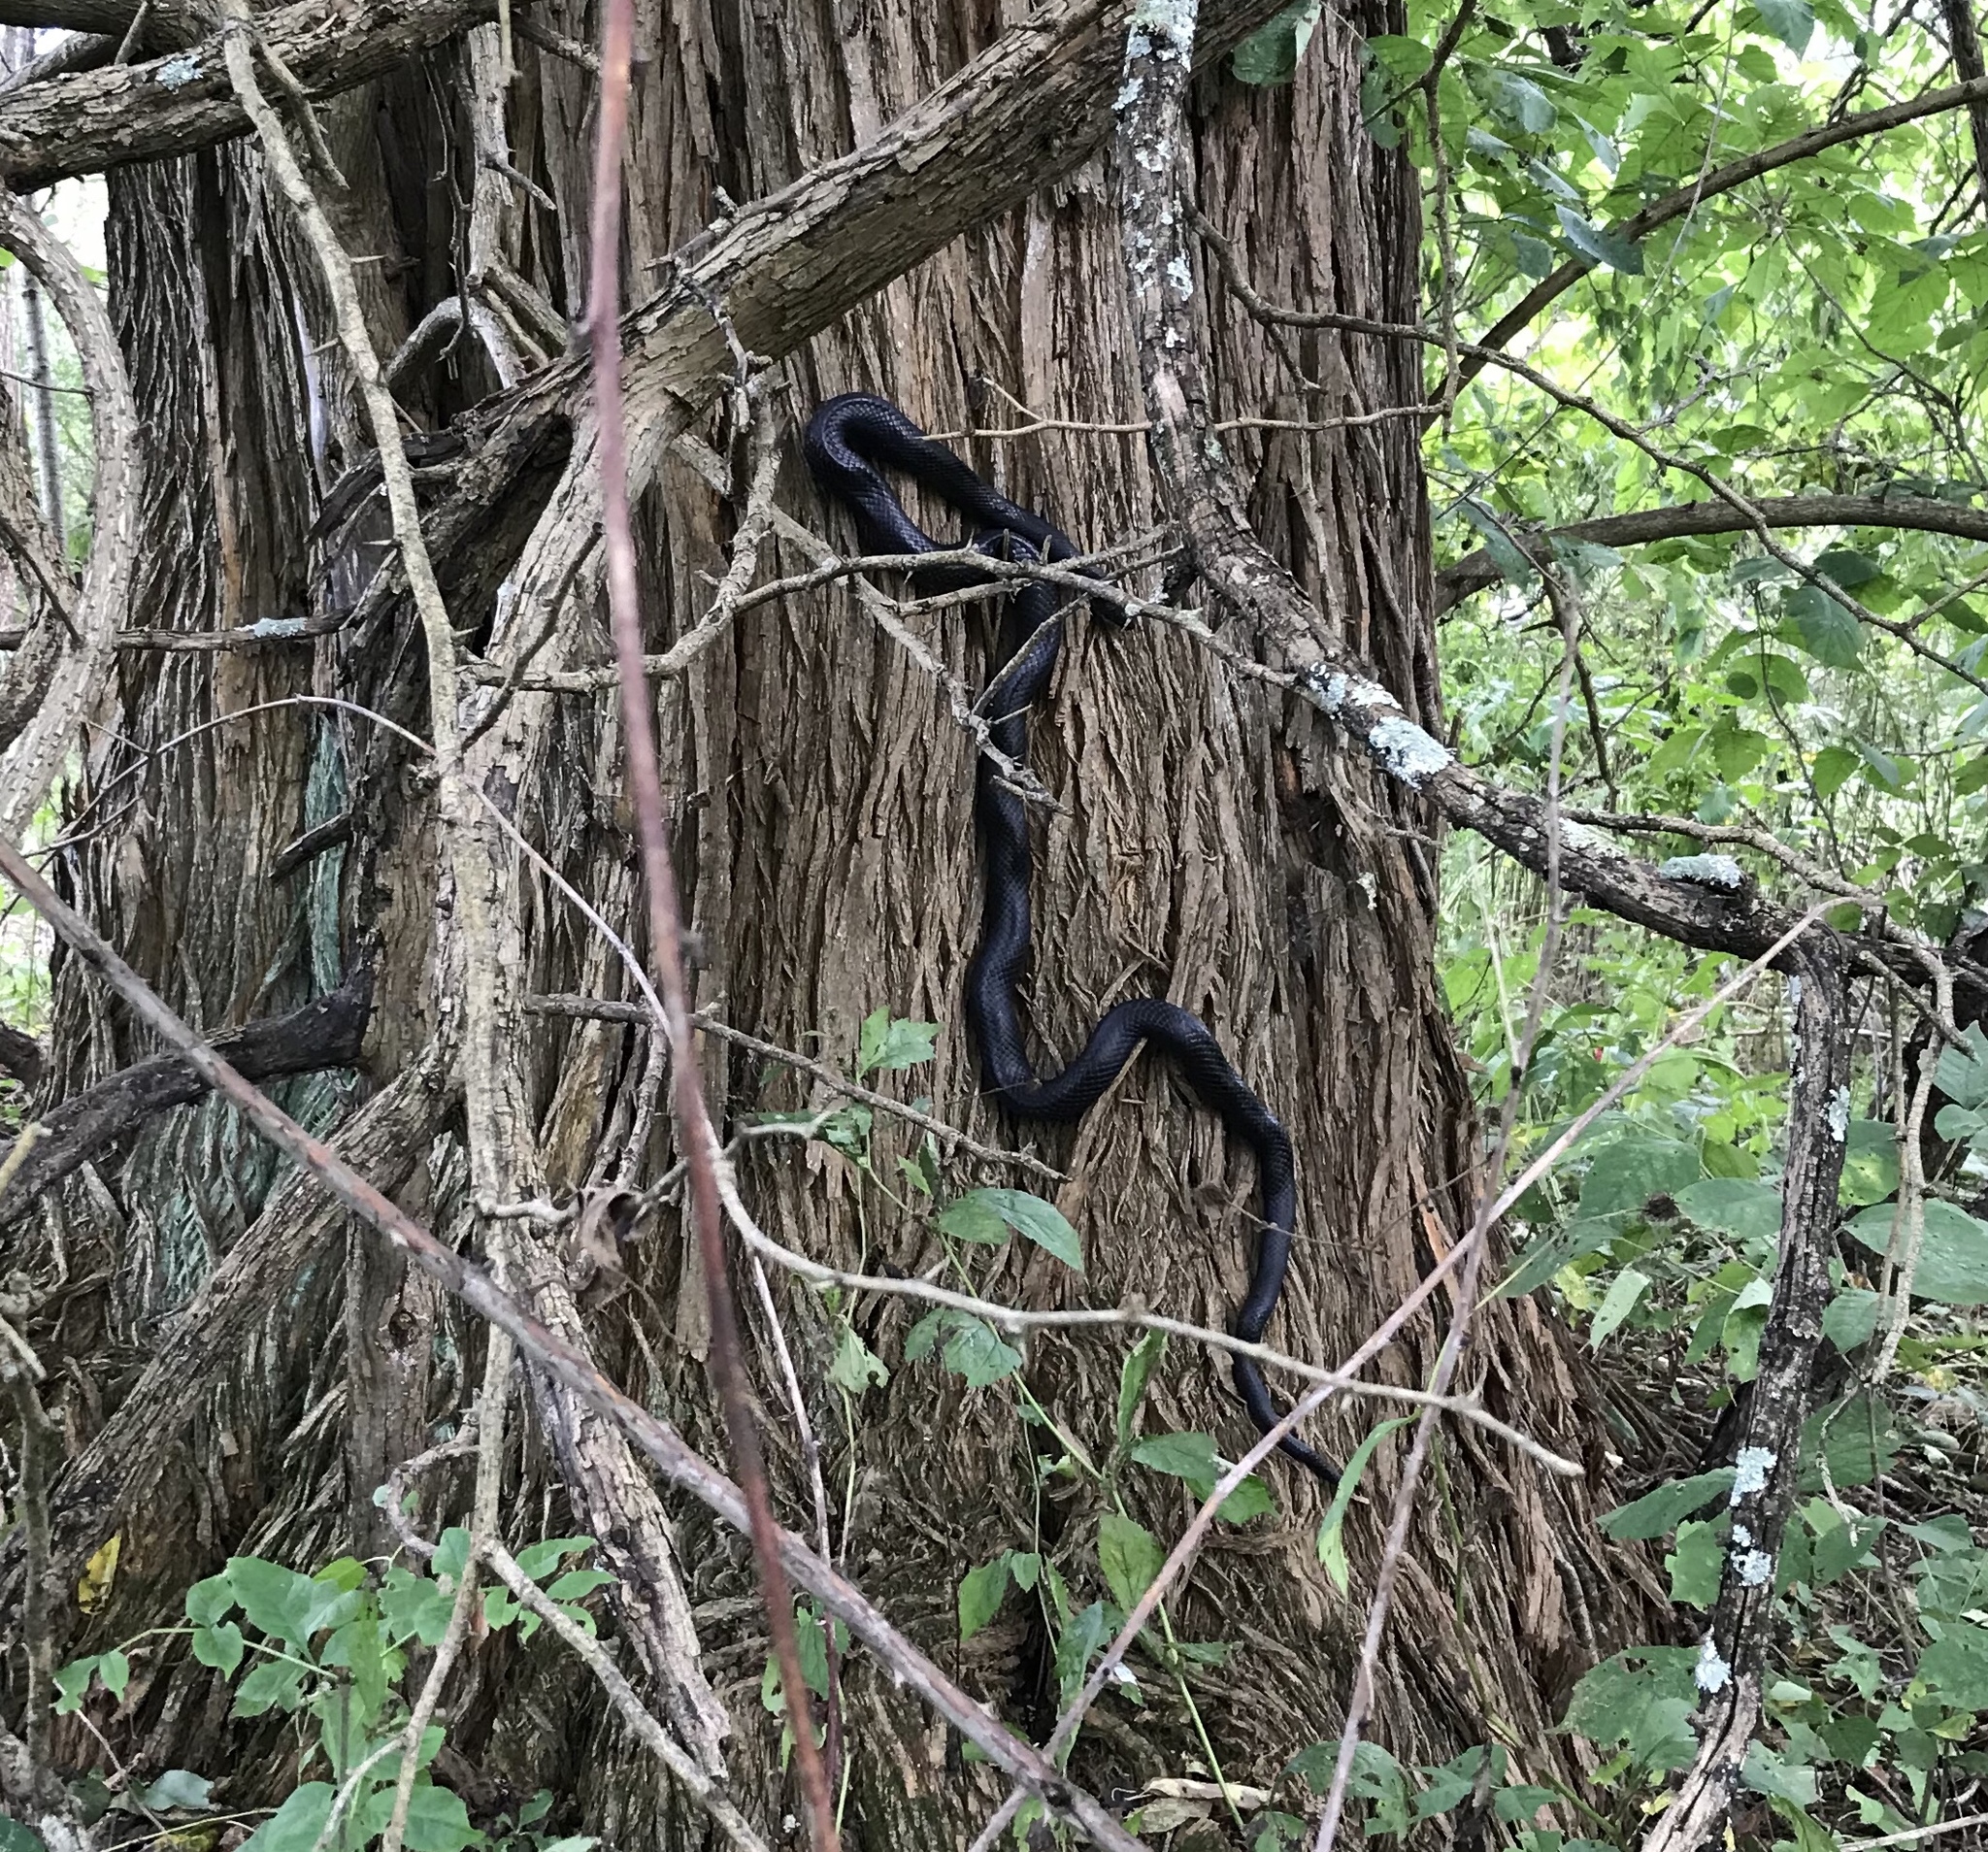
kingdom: Animalia
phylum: Chordata
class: Squamata
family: Colubridae
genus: Pantherophis
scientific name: Pantherophis
